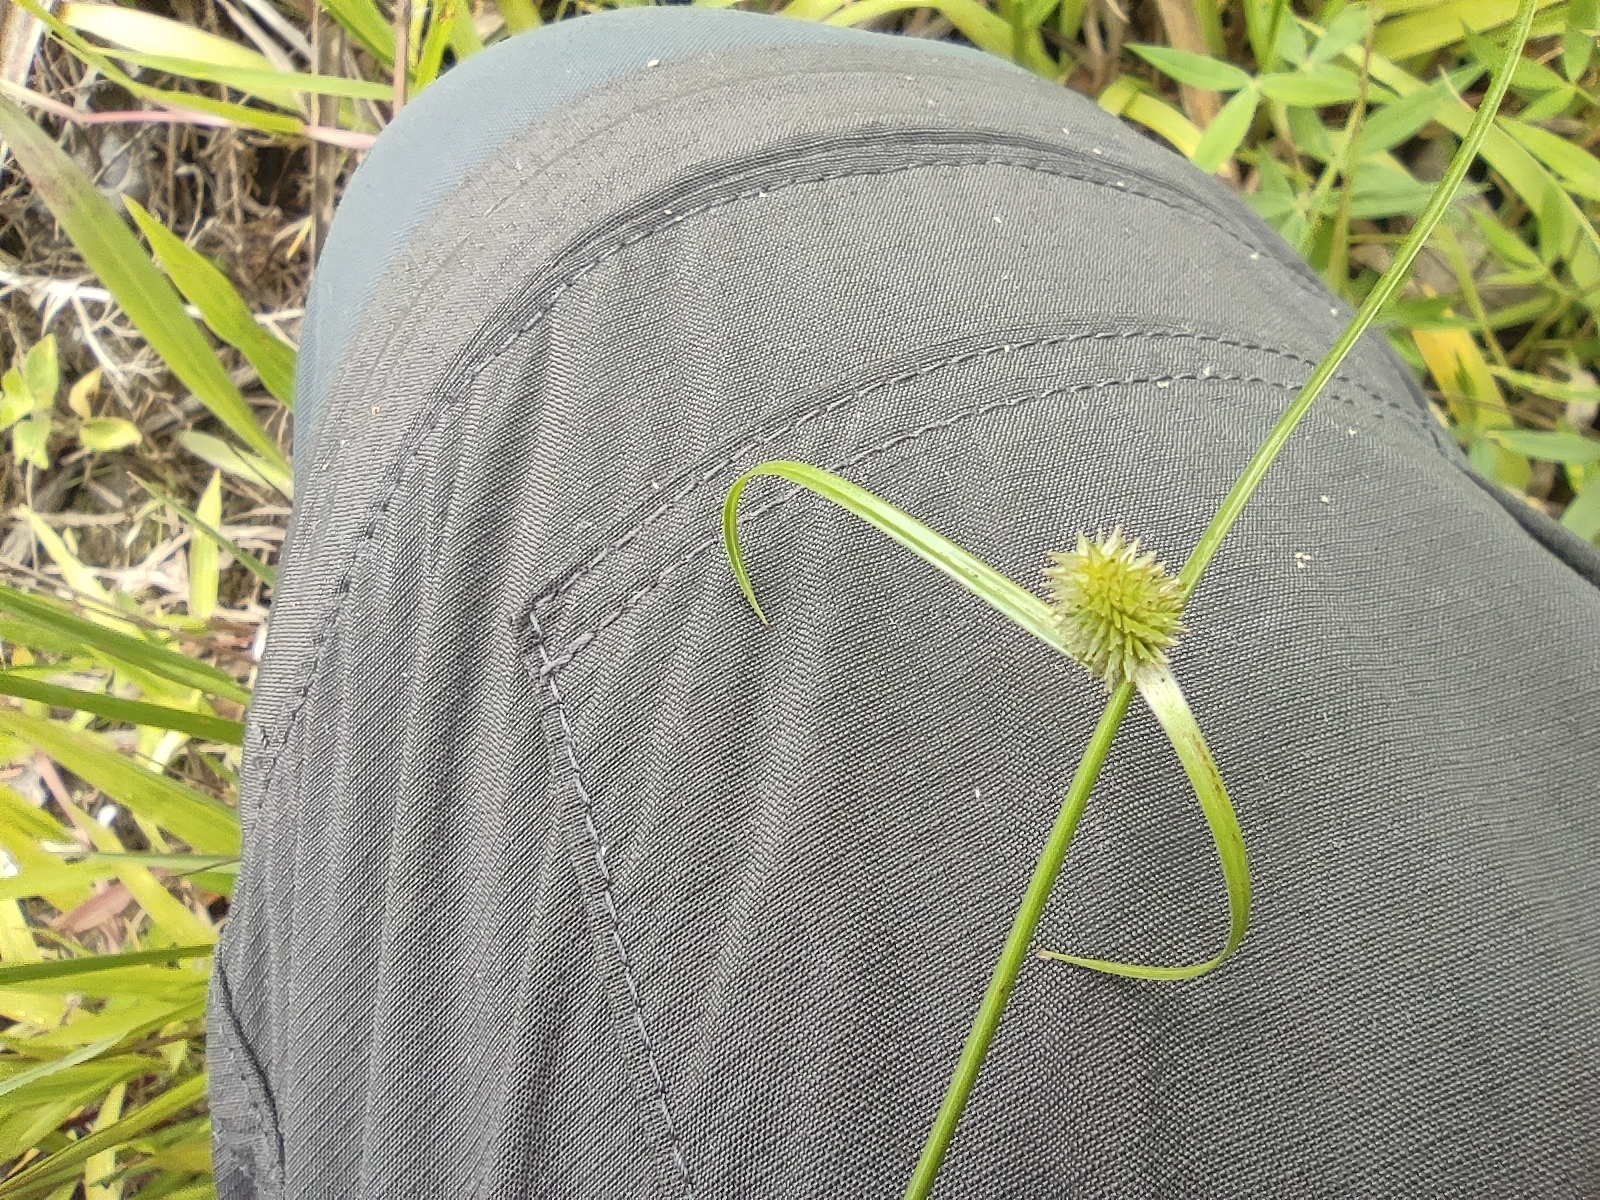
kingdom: Plantae
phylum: Tracheophyta
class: Liliopsida
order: Poales
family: Cyperaceae
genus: Cyperus
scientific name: Cyperus brevifolius
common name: Globe kyllinga
